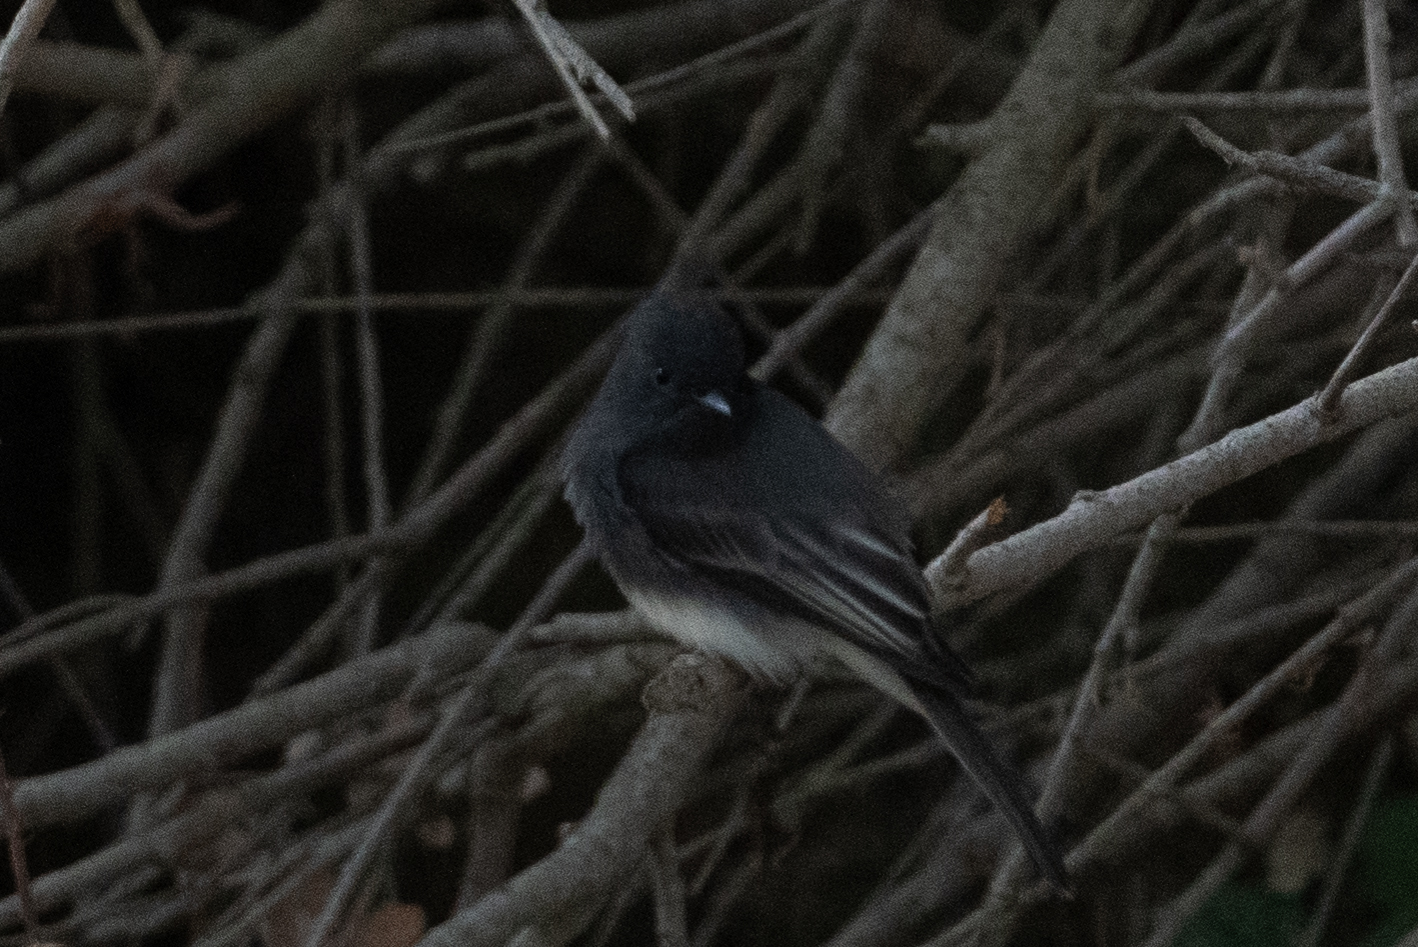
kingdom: Animalia
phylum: Chordata
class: Aves
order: Passeriformes
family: Tyrannidae
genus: Sayornis
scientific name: Sayornis nigricans
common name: Black phoebe
